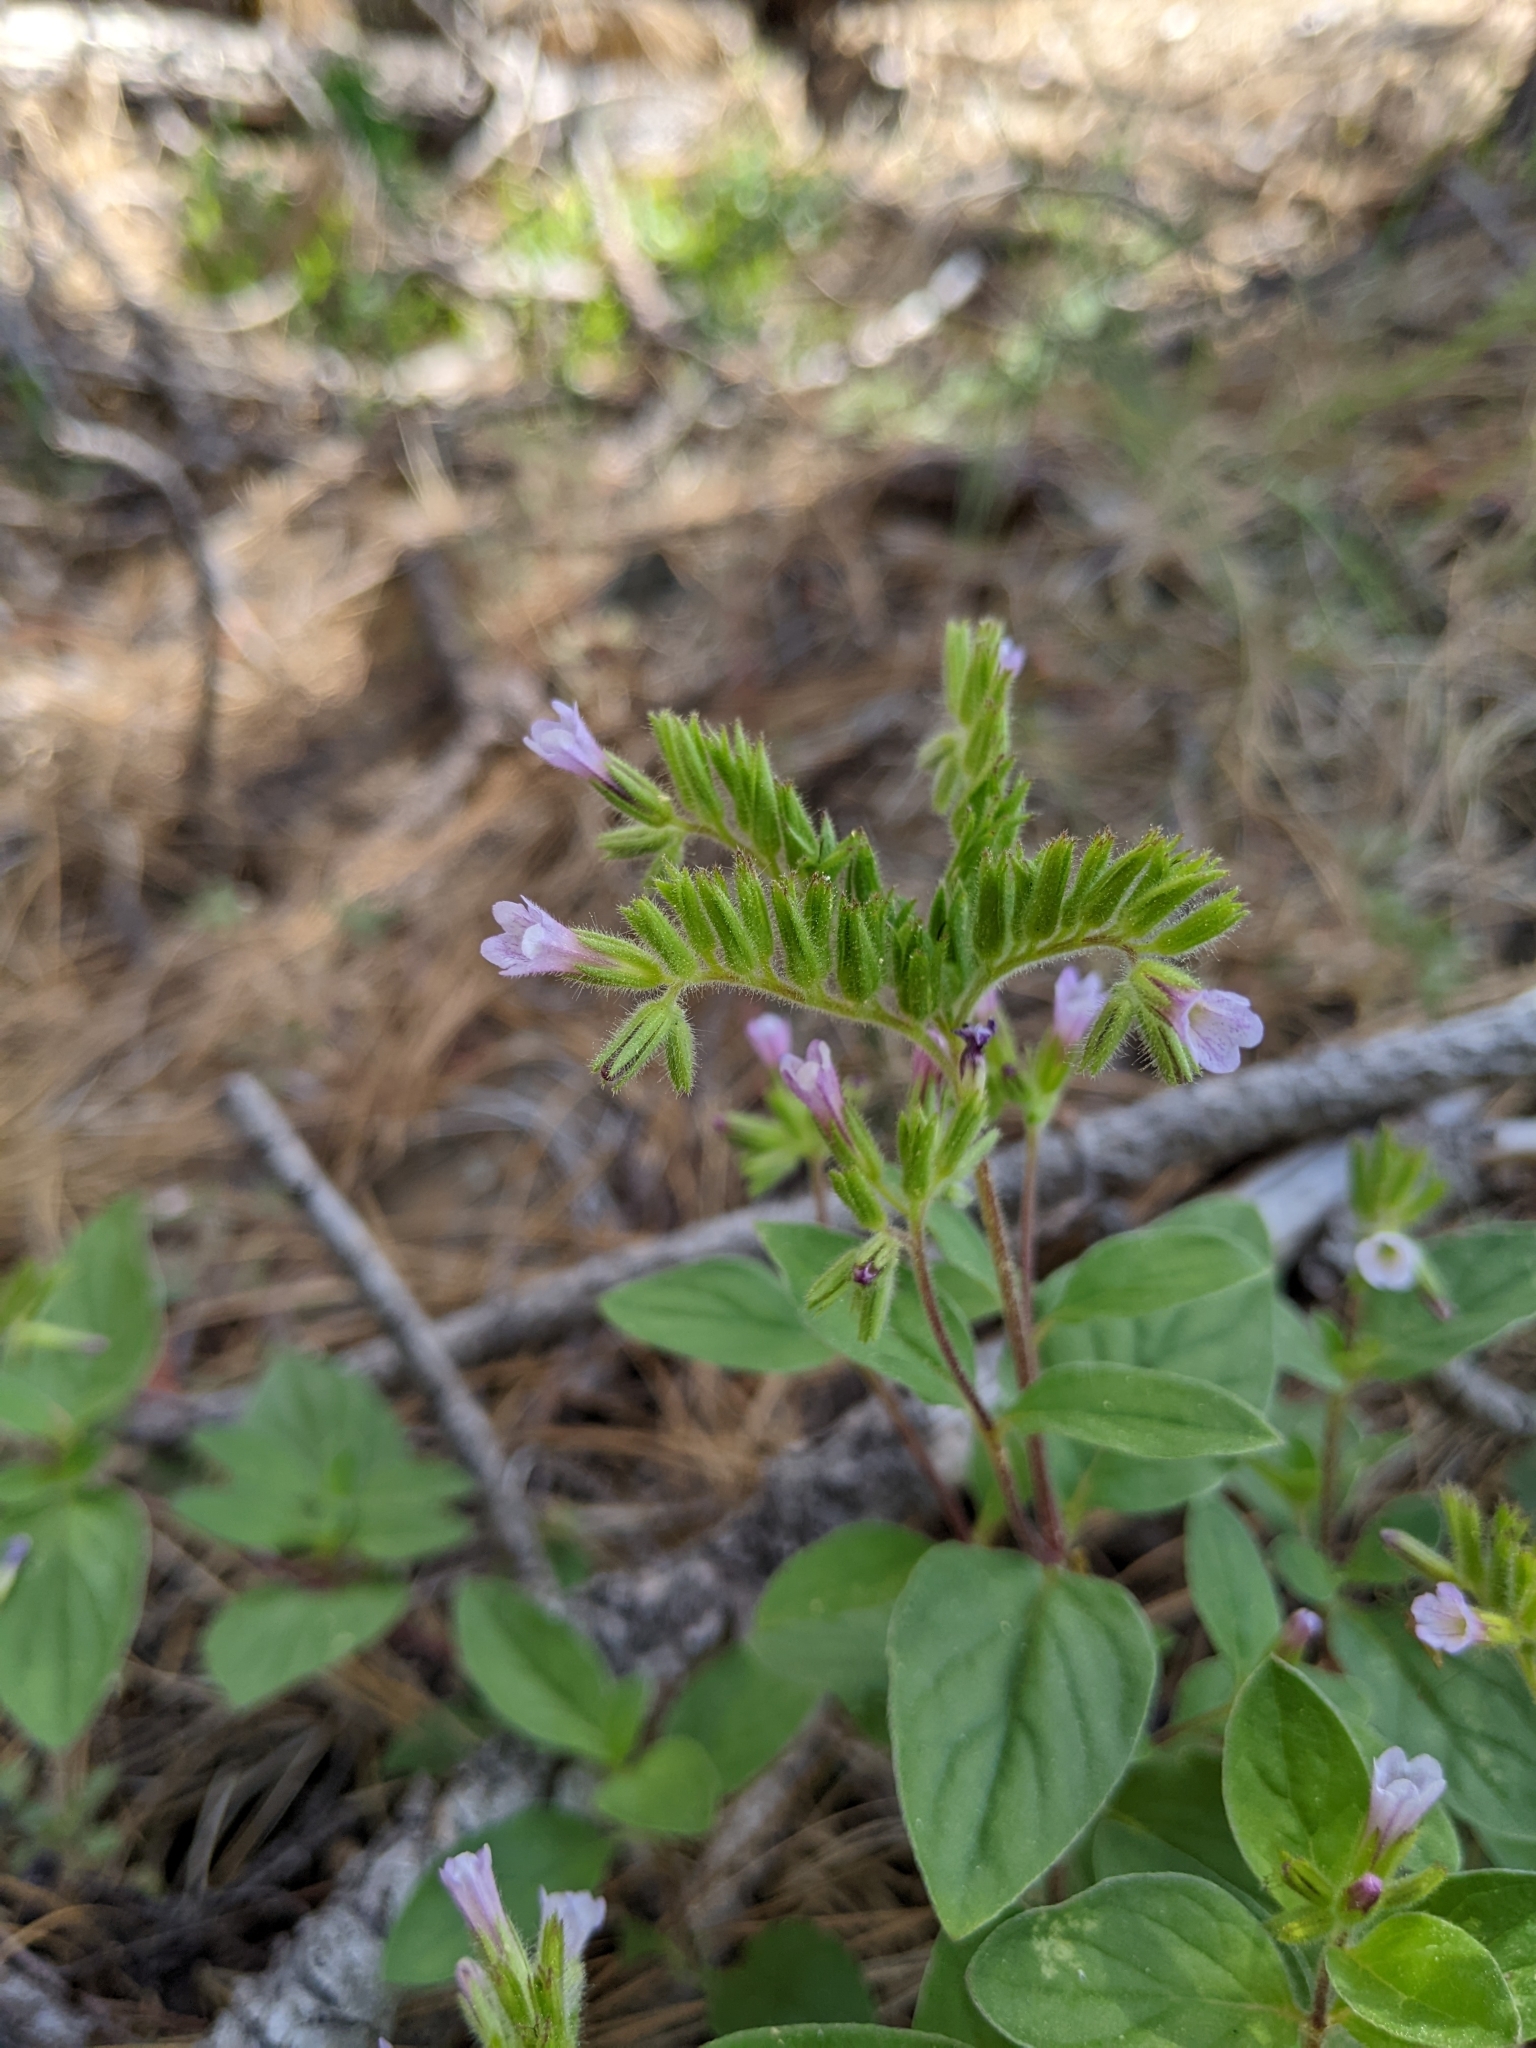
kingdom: Plantae
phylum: Tracheophyta
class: Magnoliopsida
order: Boraginales
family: Hydrophyllaceae
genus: Draperia
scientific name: Draperia systyla
